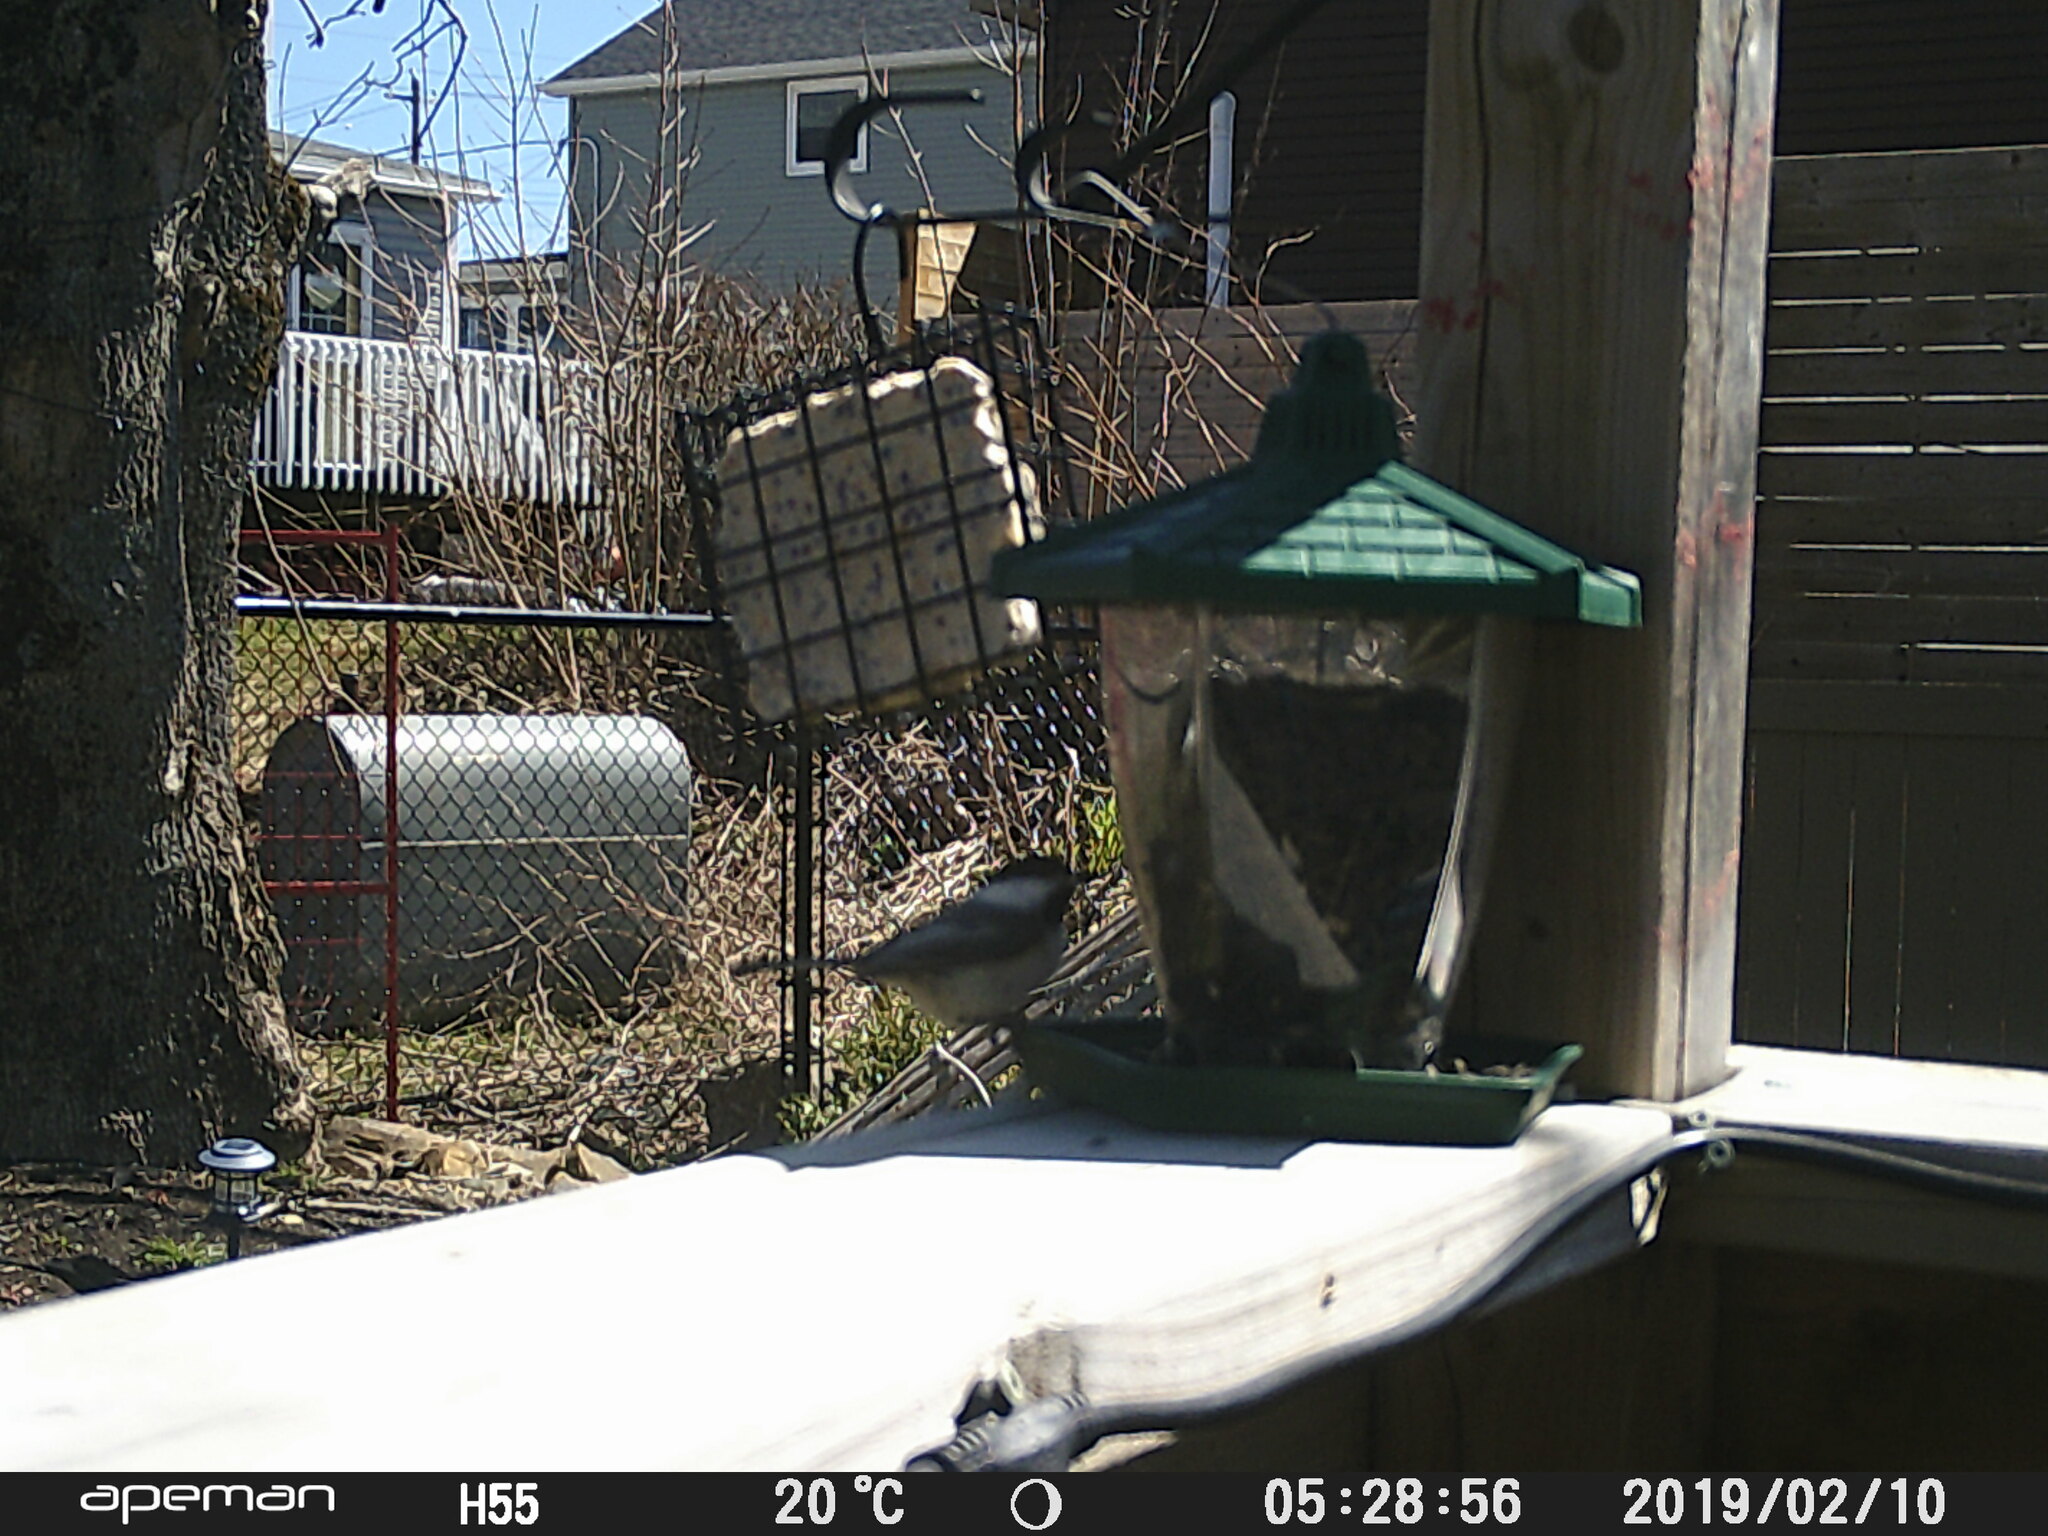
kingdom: Animalia
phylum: Chordata
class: Aves
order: Passeriformes
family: Paridae
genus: Poecile
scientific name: Poecile atricapillus
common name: Black-capped chickadee
